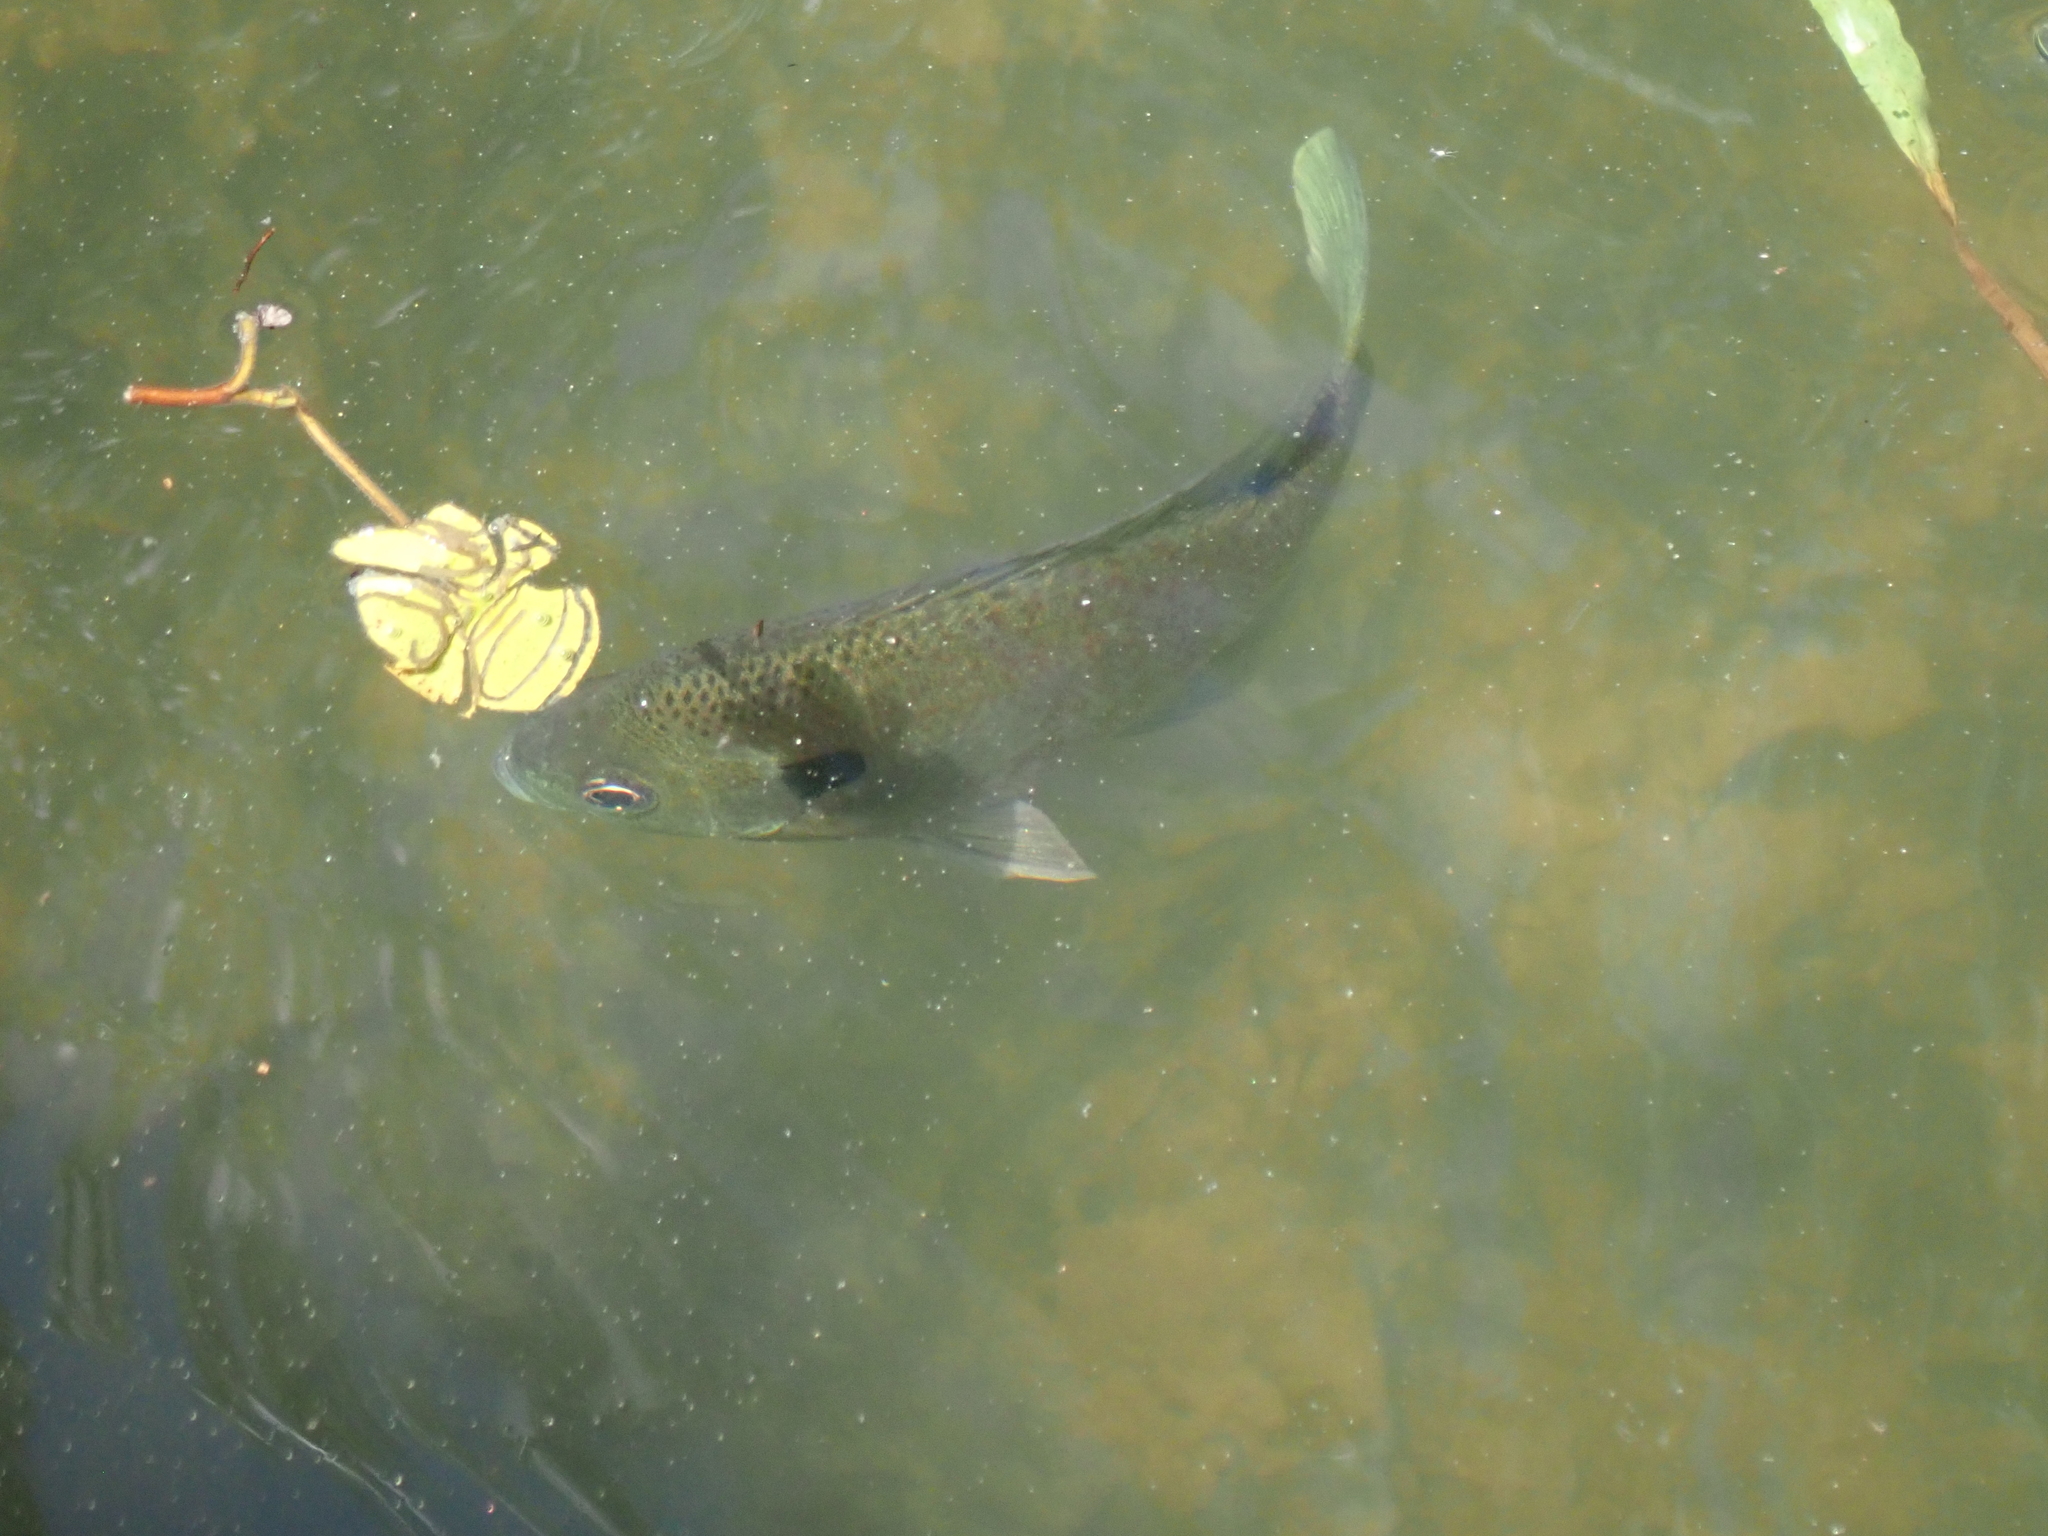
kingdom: Animalia
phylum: Chordata
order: Perciformes
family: Centrarchidae
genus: Lepomis
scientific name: Lepomis macrochirus
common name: Bluegill
